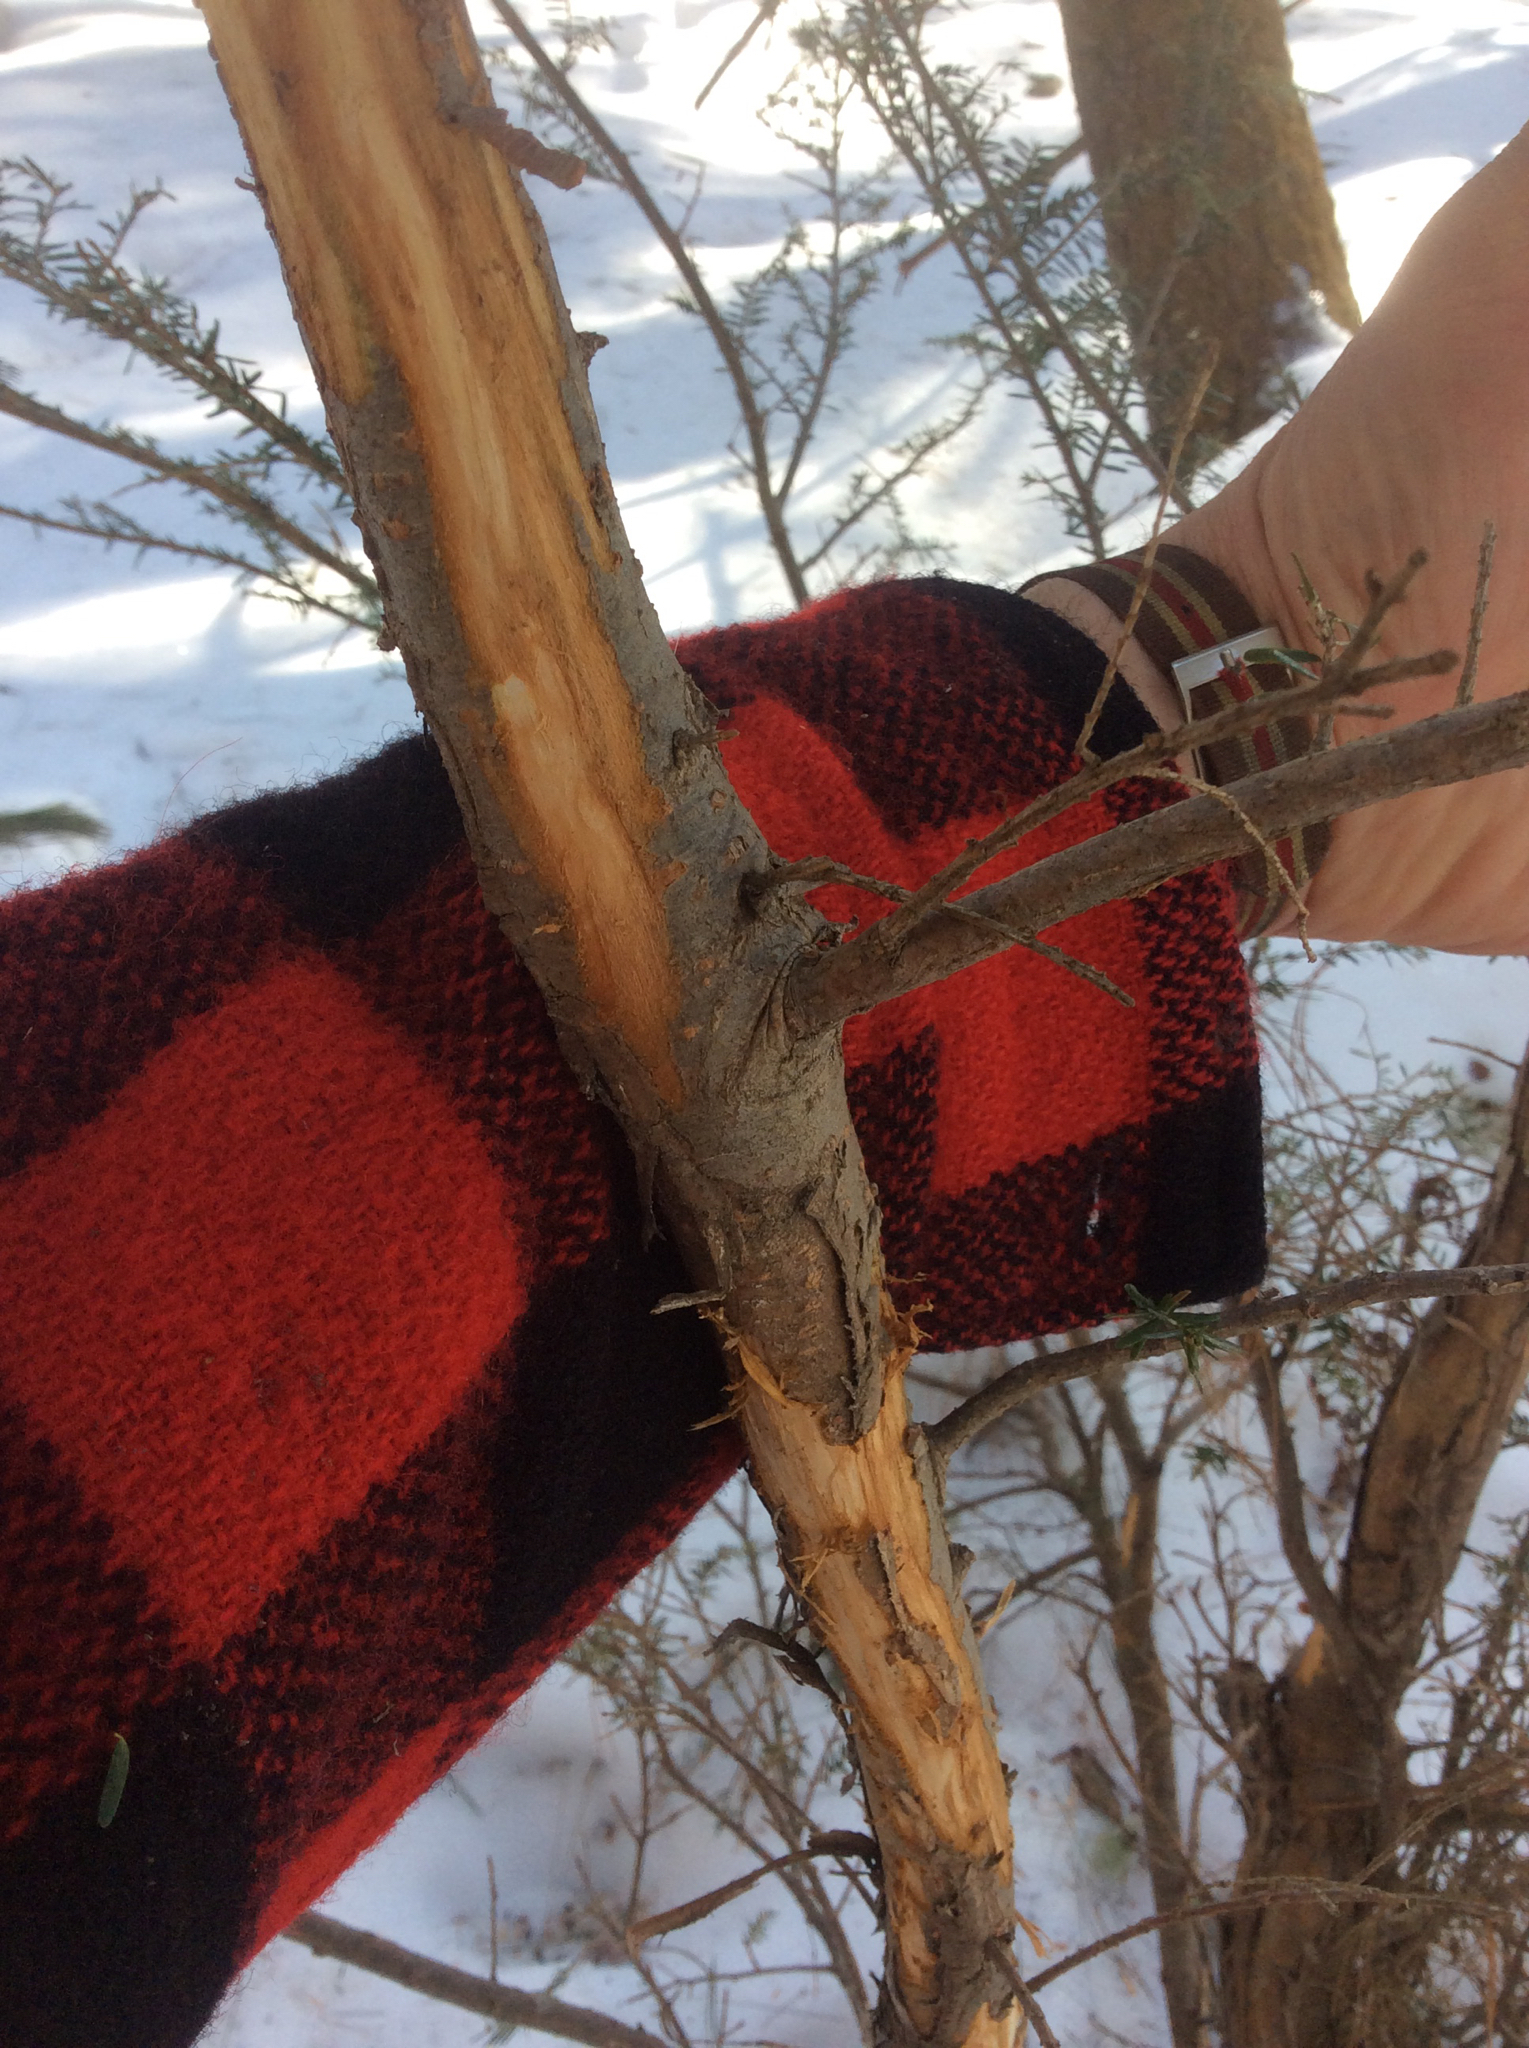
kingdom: Plantae
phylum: Tracheophyta
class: Pinopsida
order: Pinales
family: Pinaceae
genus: Tsuga
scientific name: Tsuga canadensis
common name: Eastern hemlock
